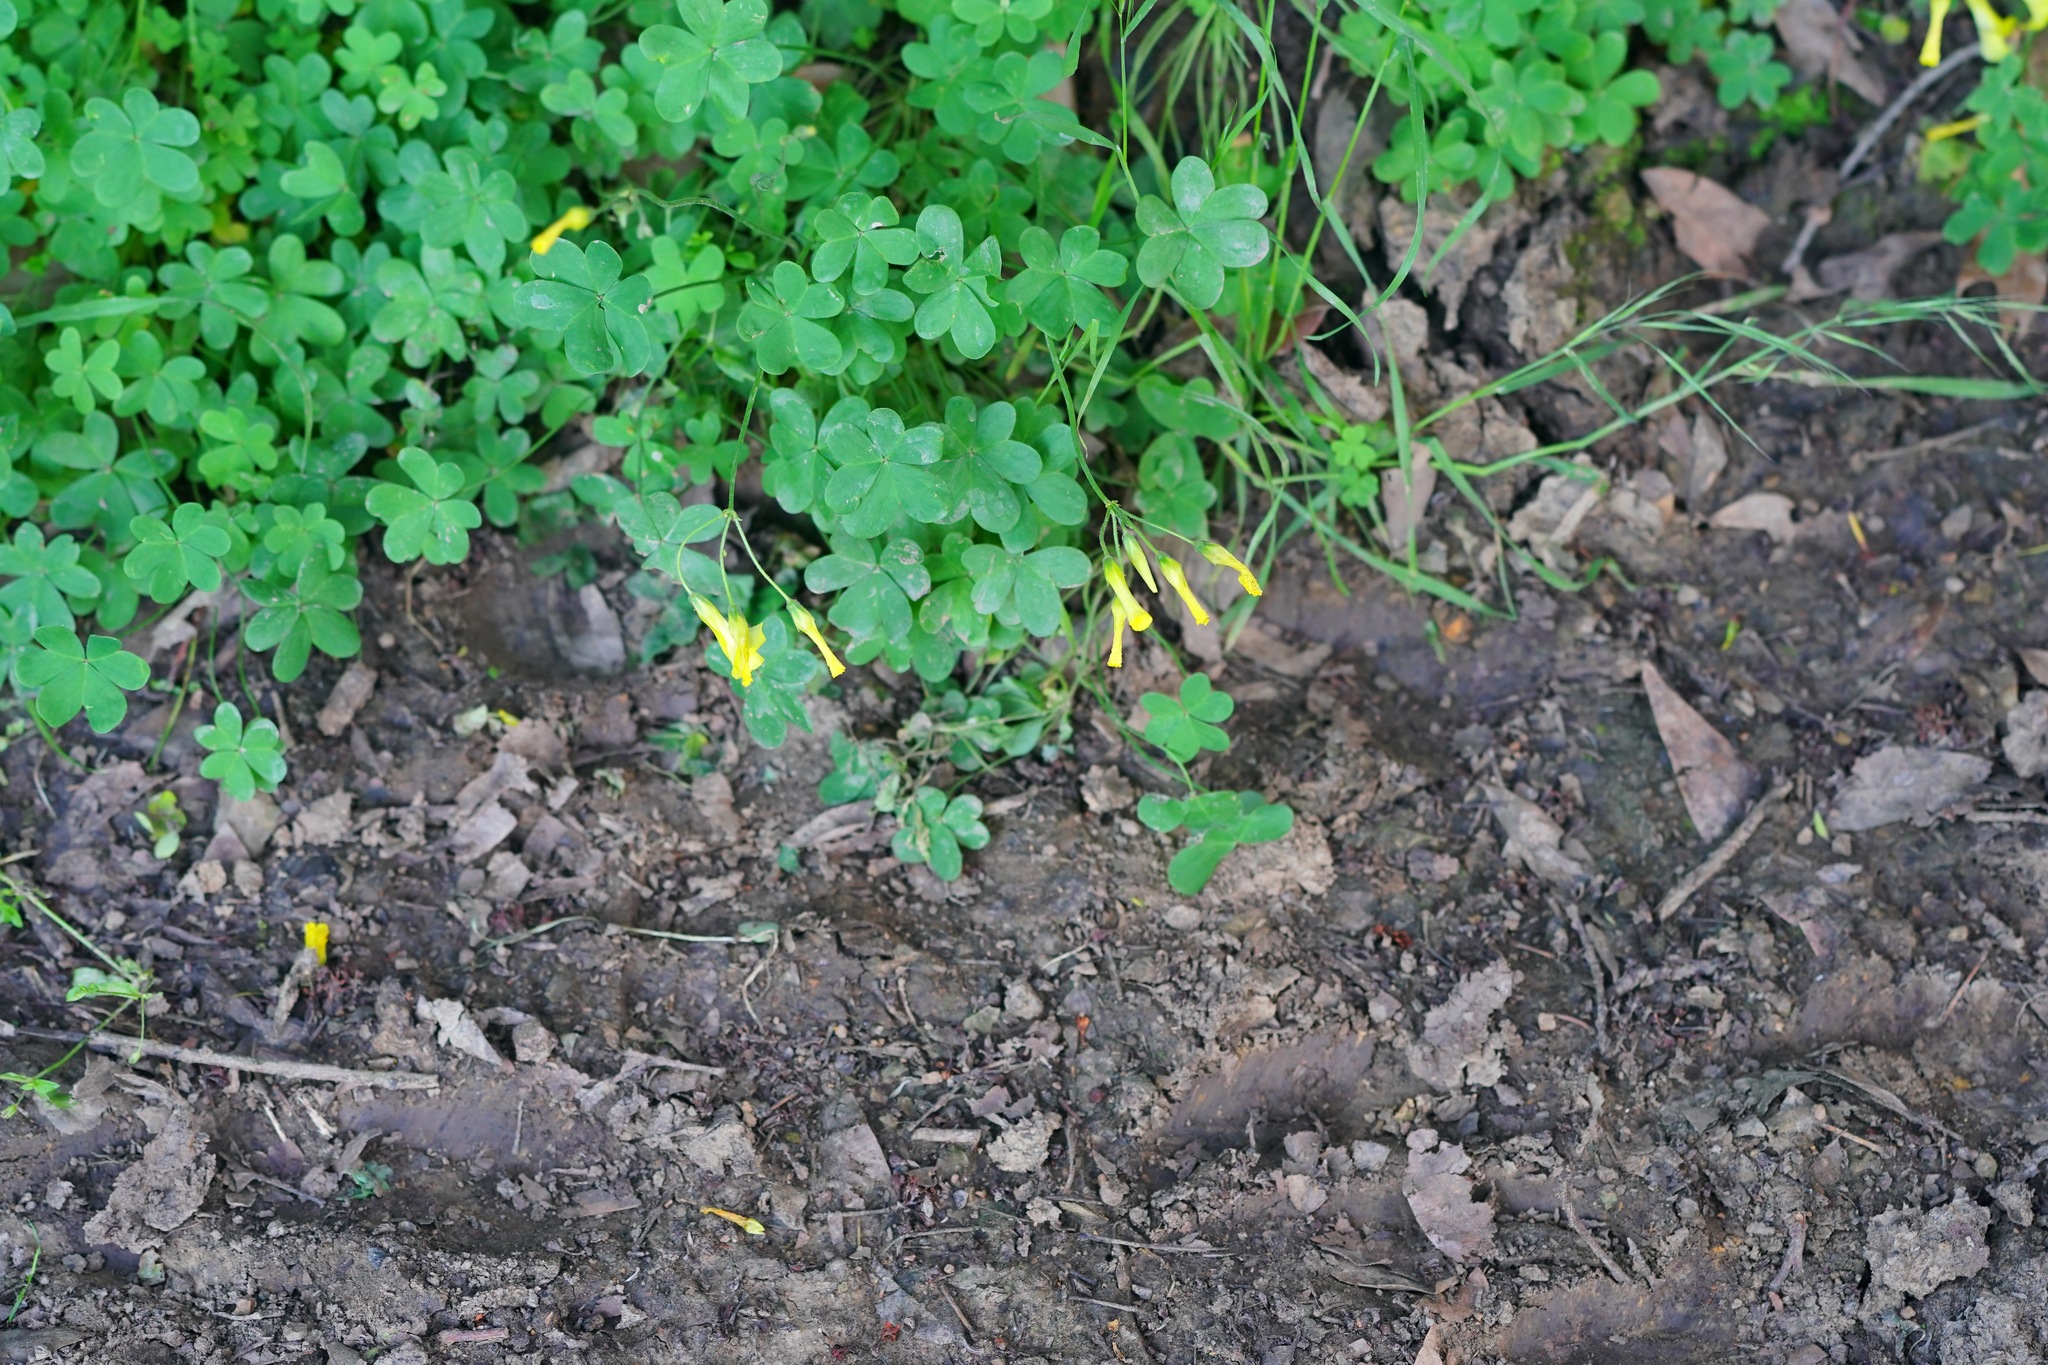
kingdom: Plantae
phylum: Tracheophyta
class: Magnoliopsida
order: Oxalidales
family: Oxalidaceae
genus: Oxalis
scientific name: Oxalis pes-caprae
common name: Bermuda-buttercup
